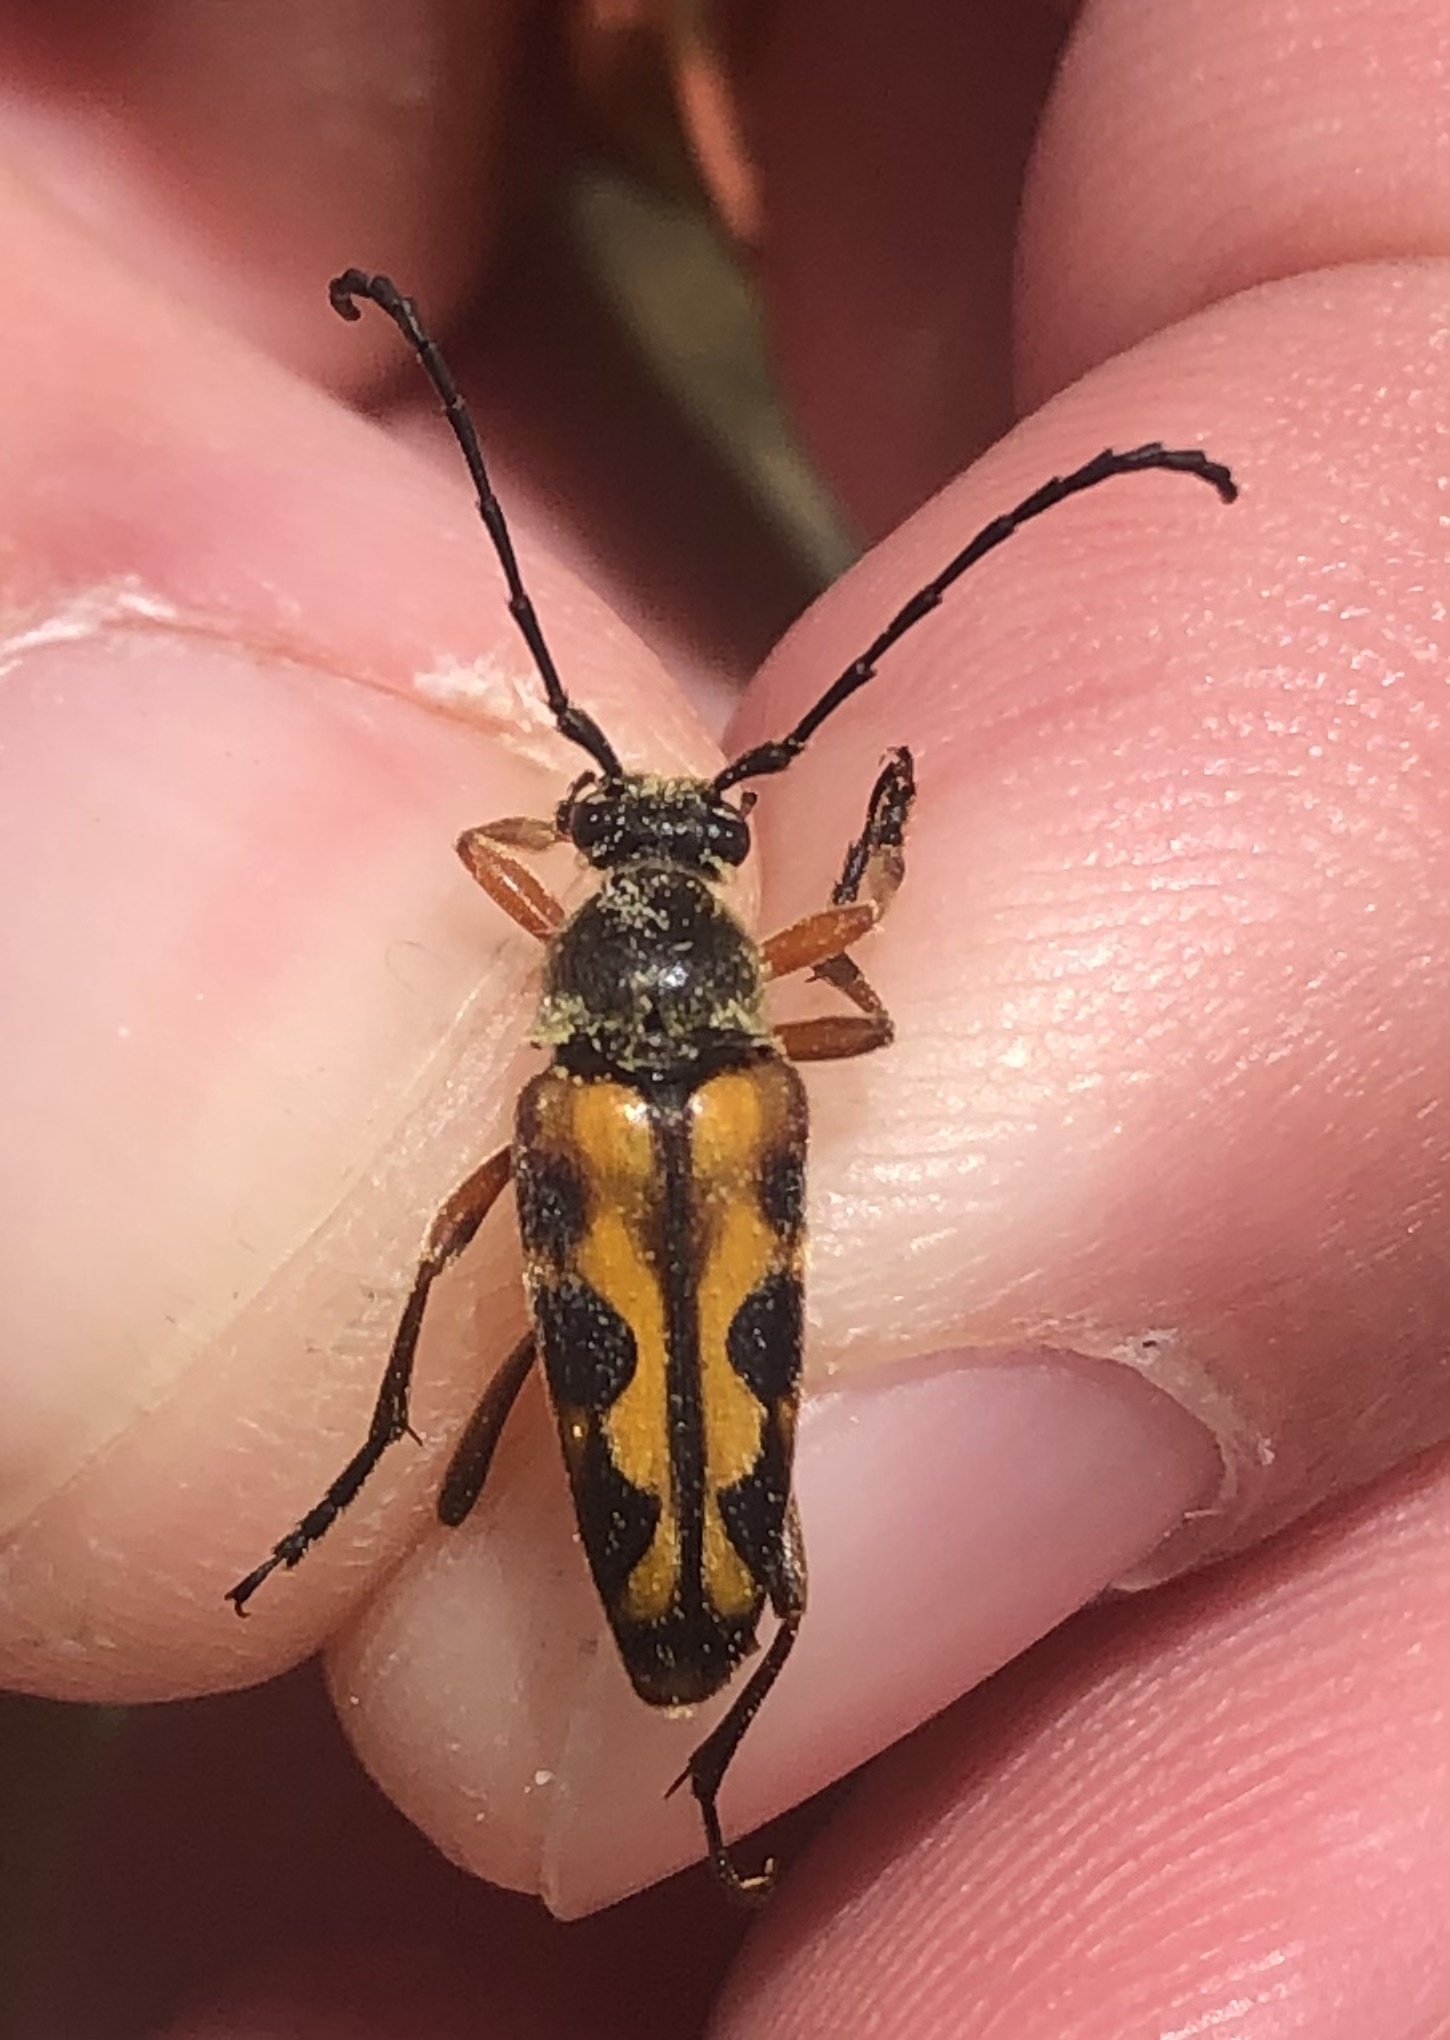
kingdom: Animalia
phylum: Arthropoda
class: Insecta
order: Coleoptera
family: Cerambycidae
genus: Typocerus
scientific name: Typocerus octonotatus
